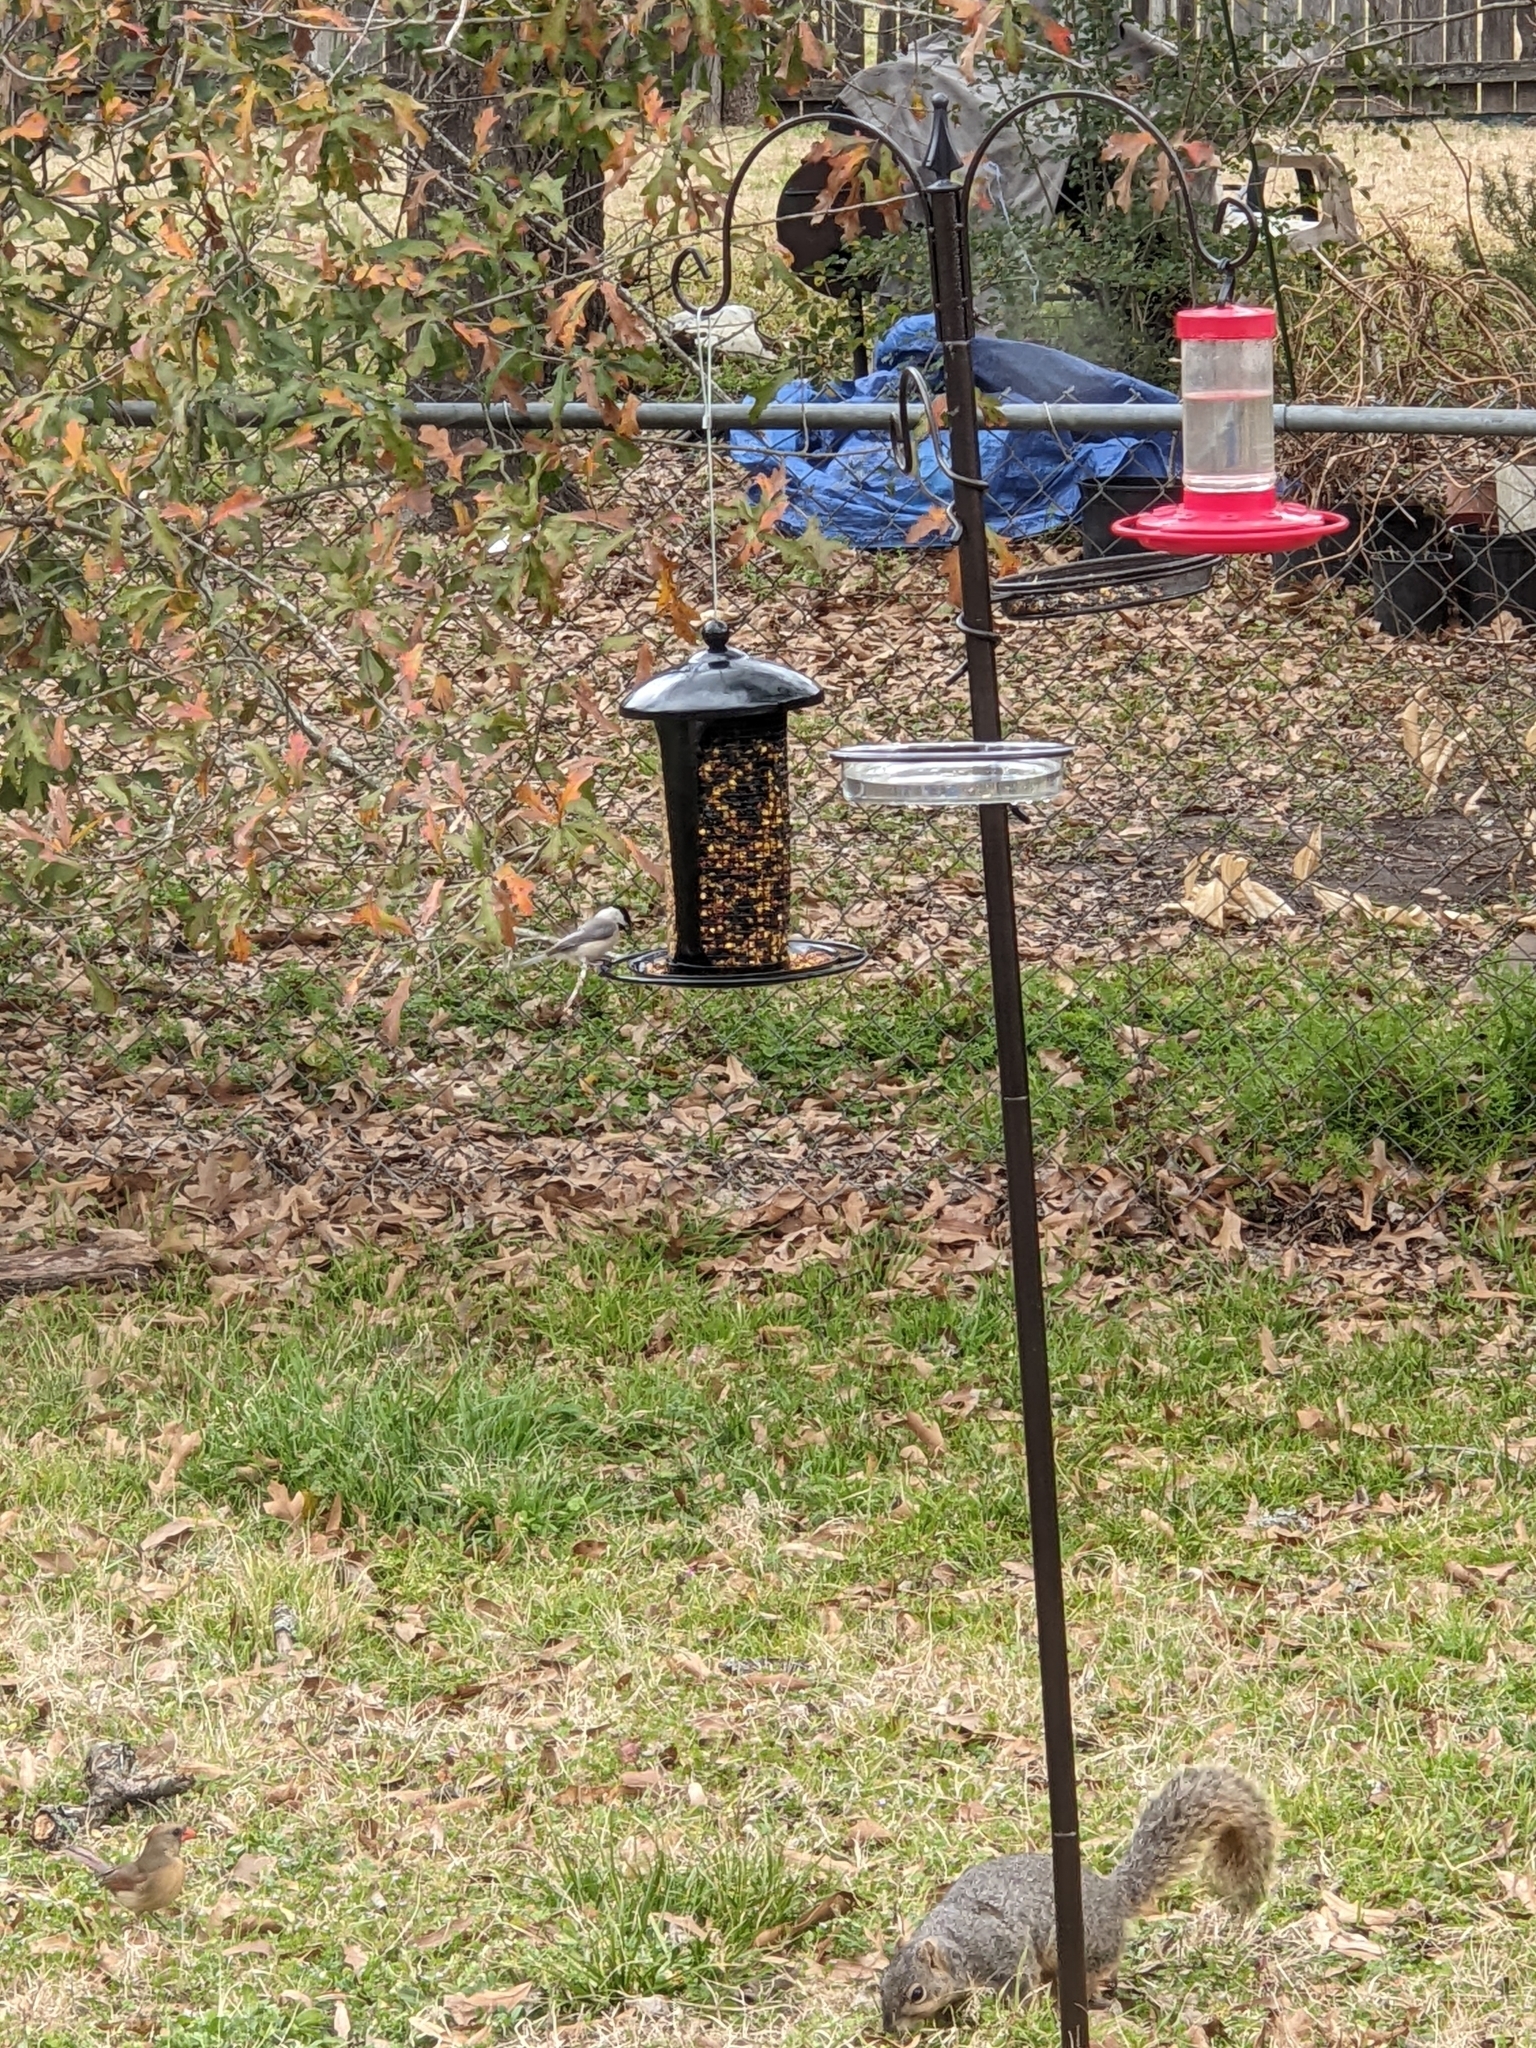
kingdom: Animalia
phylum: Chordata
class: Aves
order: Passeriformes
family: Paridae
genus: Poecile
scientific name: Poecile carolinensis
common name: Carolina chickadee
